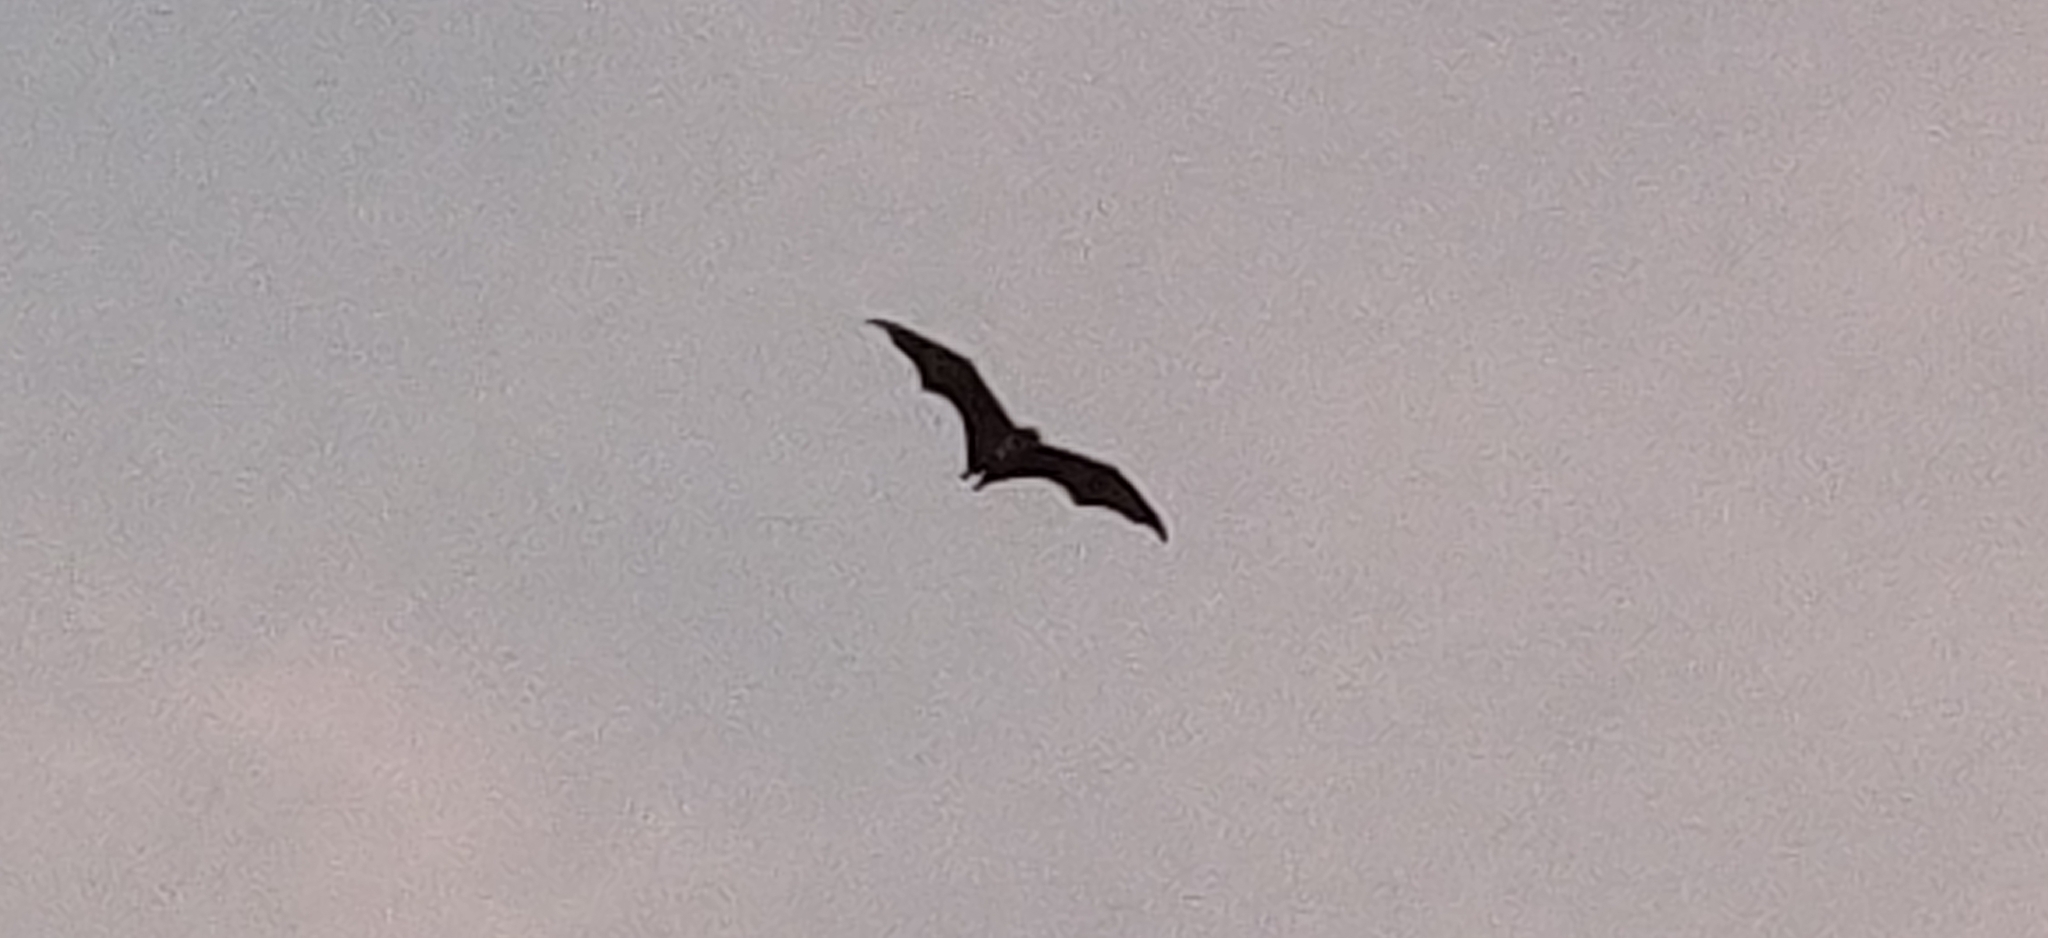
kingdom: Animalia
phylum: Chordata
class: Mammalia
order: Chiroptera
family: Pteropodidae
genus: Pteropus
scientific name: Pteropus vampyrus
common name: Large flying fox
